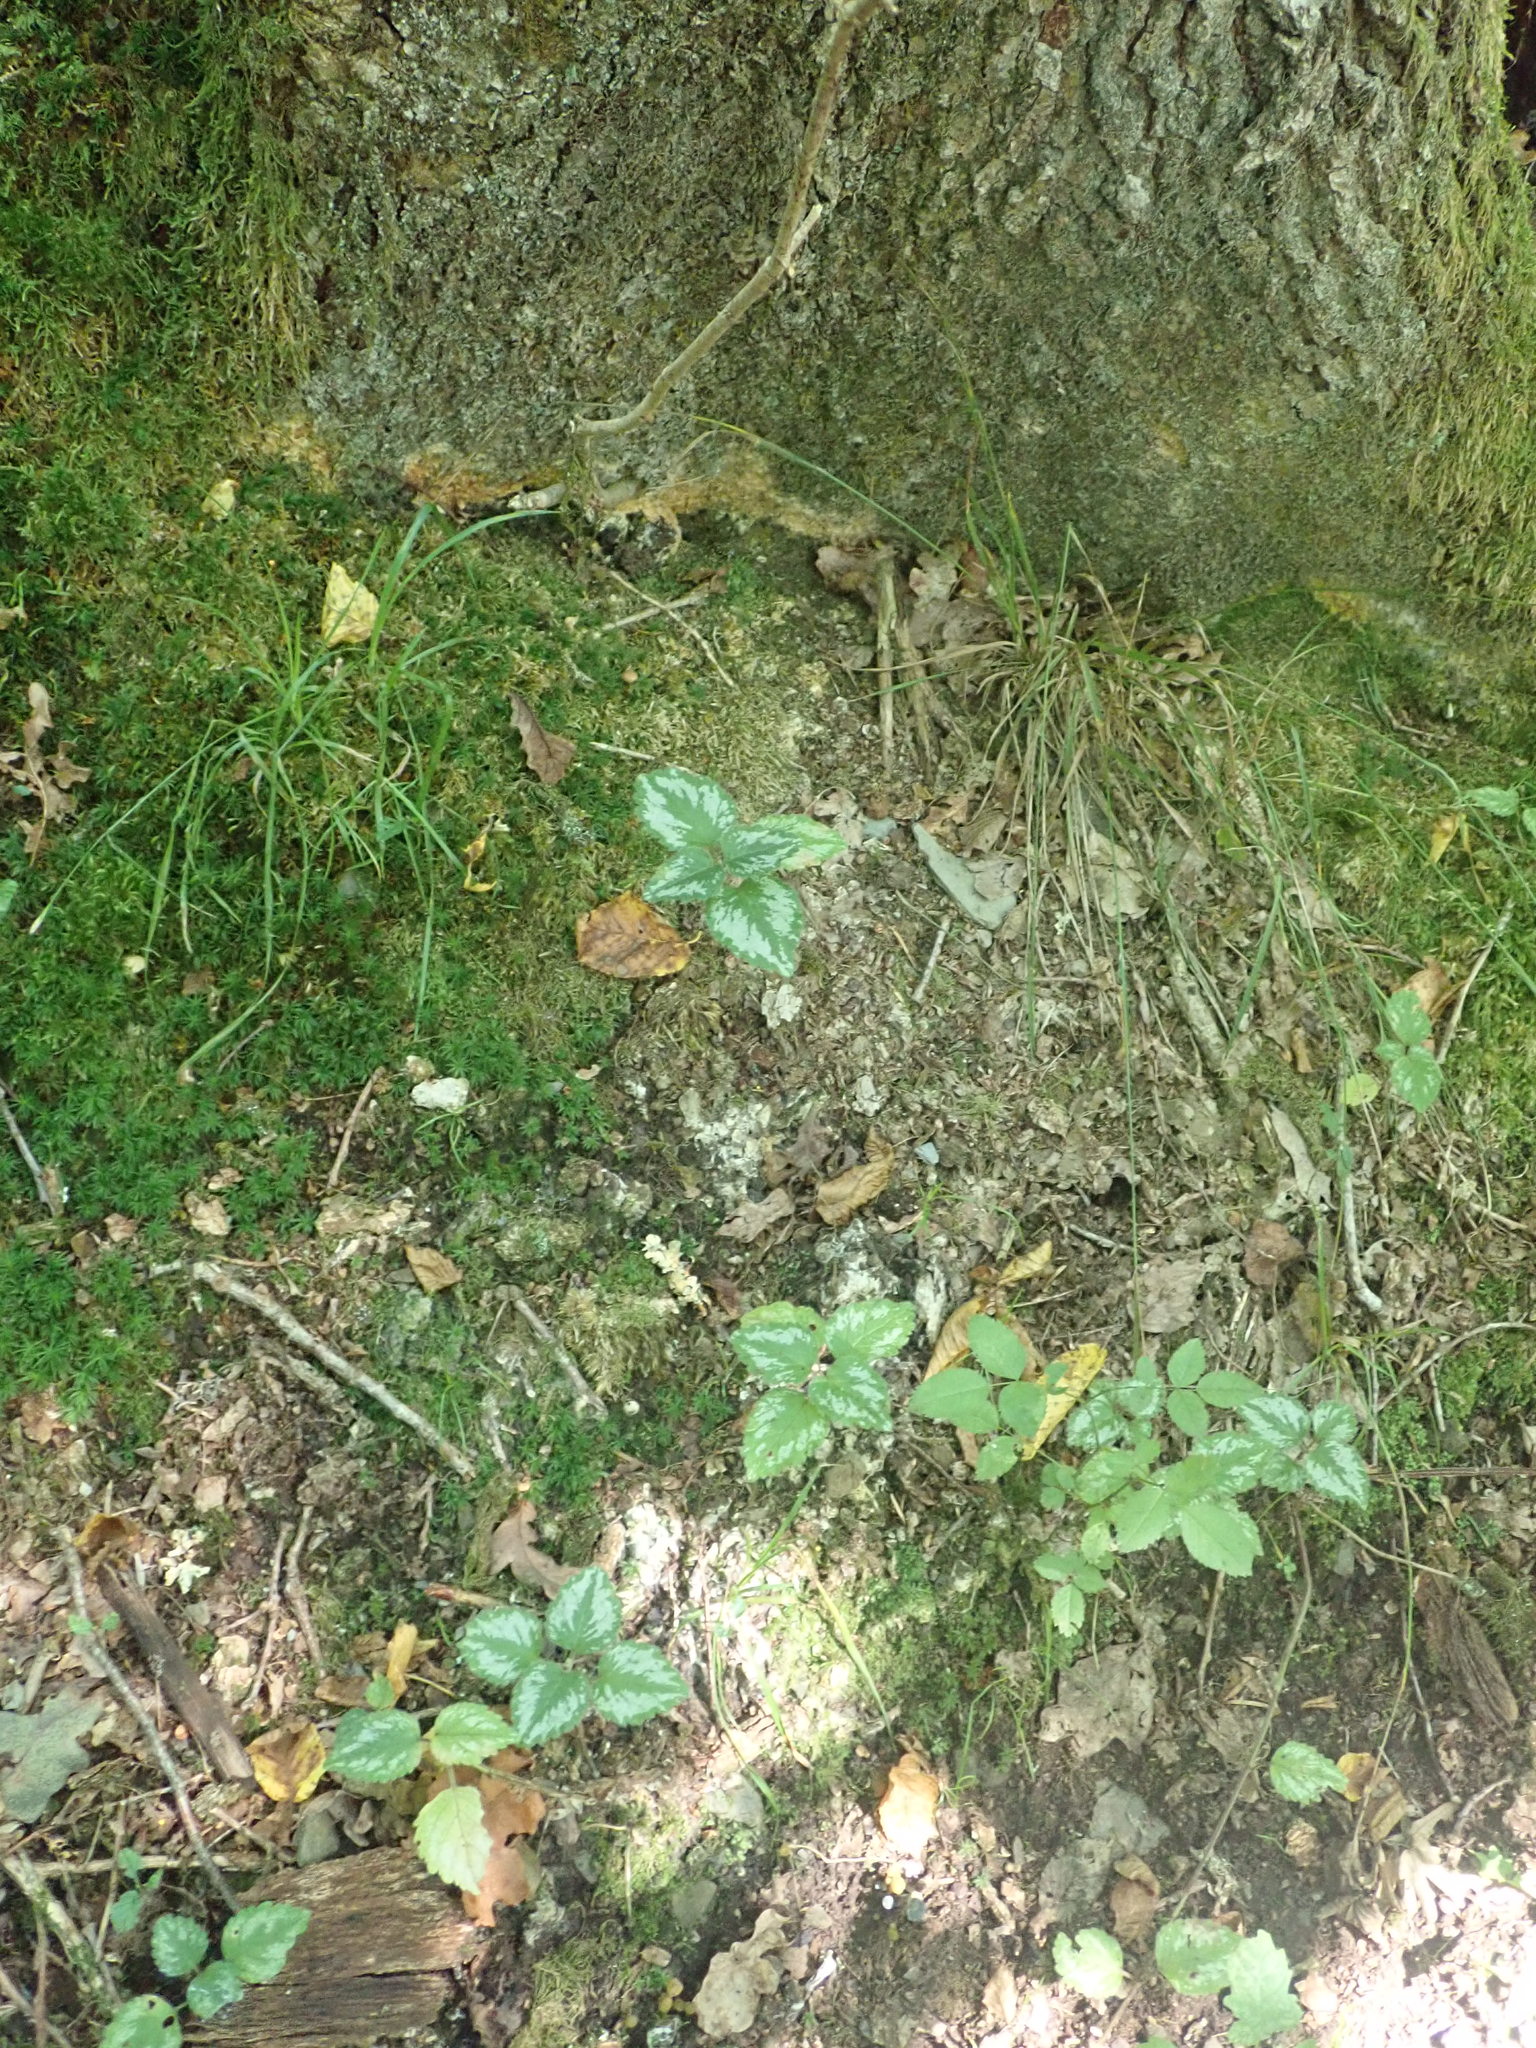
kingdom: Plantae
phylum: Tracheophyta
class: Magnoliopsida
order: Lamiales
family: Lamiaceae
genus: Lamium
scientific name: Lamium galeobdolon
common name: Yellow archangel
